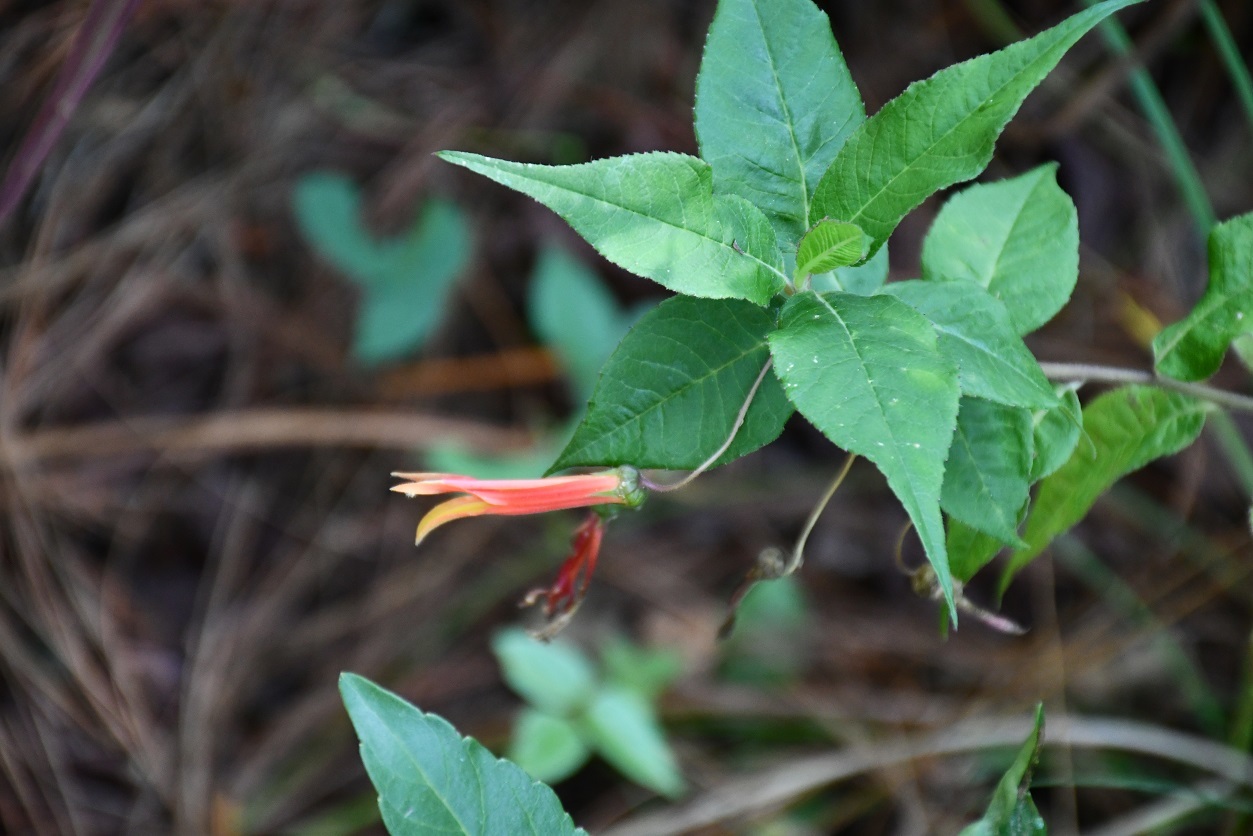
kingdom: Plantae
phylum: Tracheophyta
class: Magnoliopsida
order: Asterales
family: Campanulaceae
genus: Lobelia
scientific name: Lobelia laxiflora
